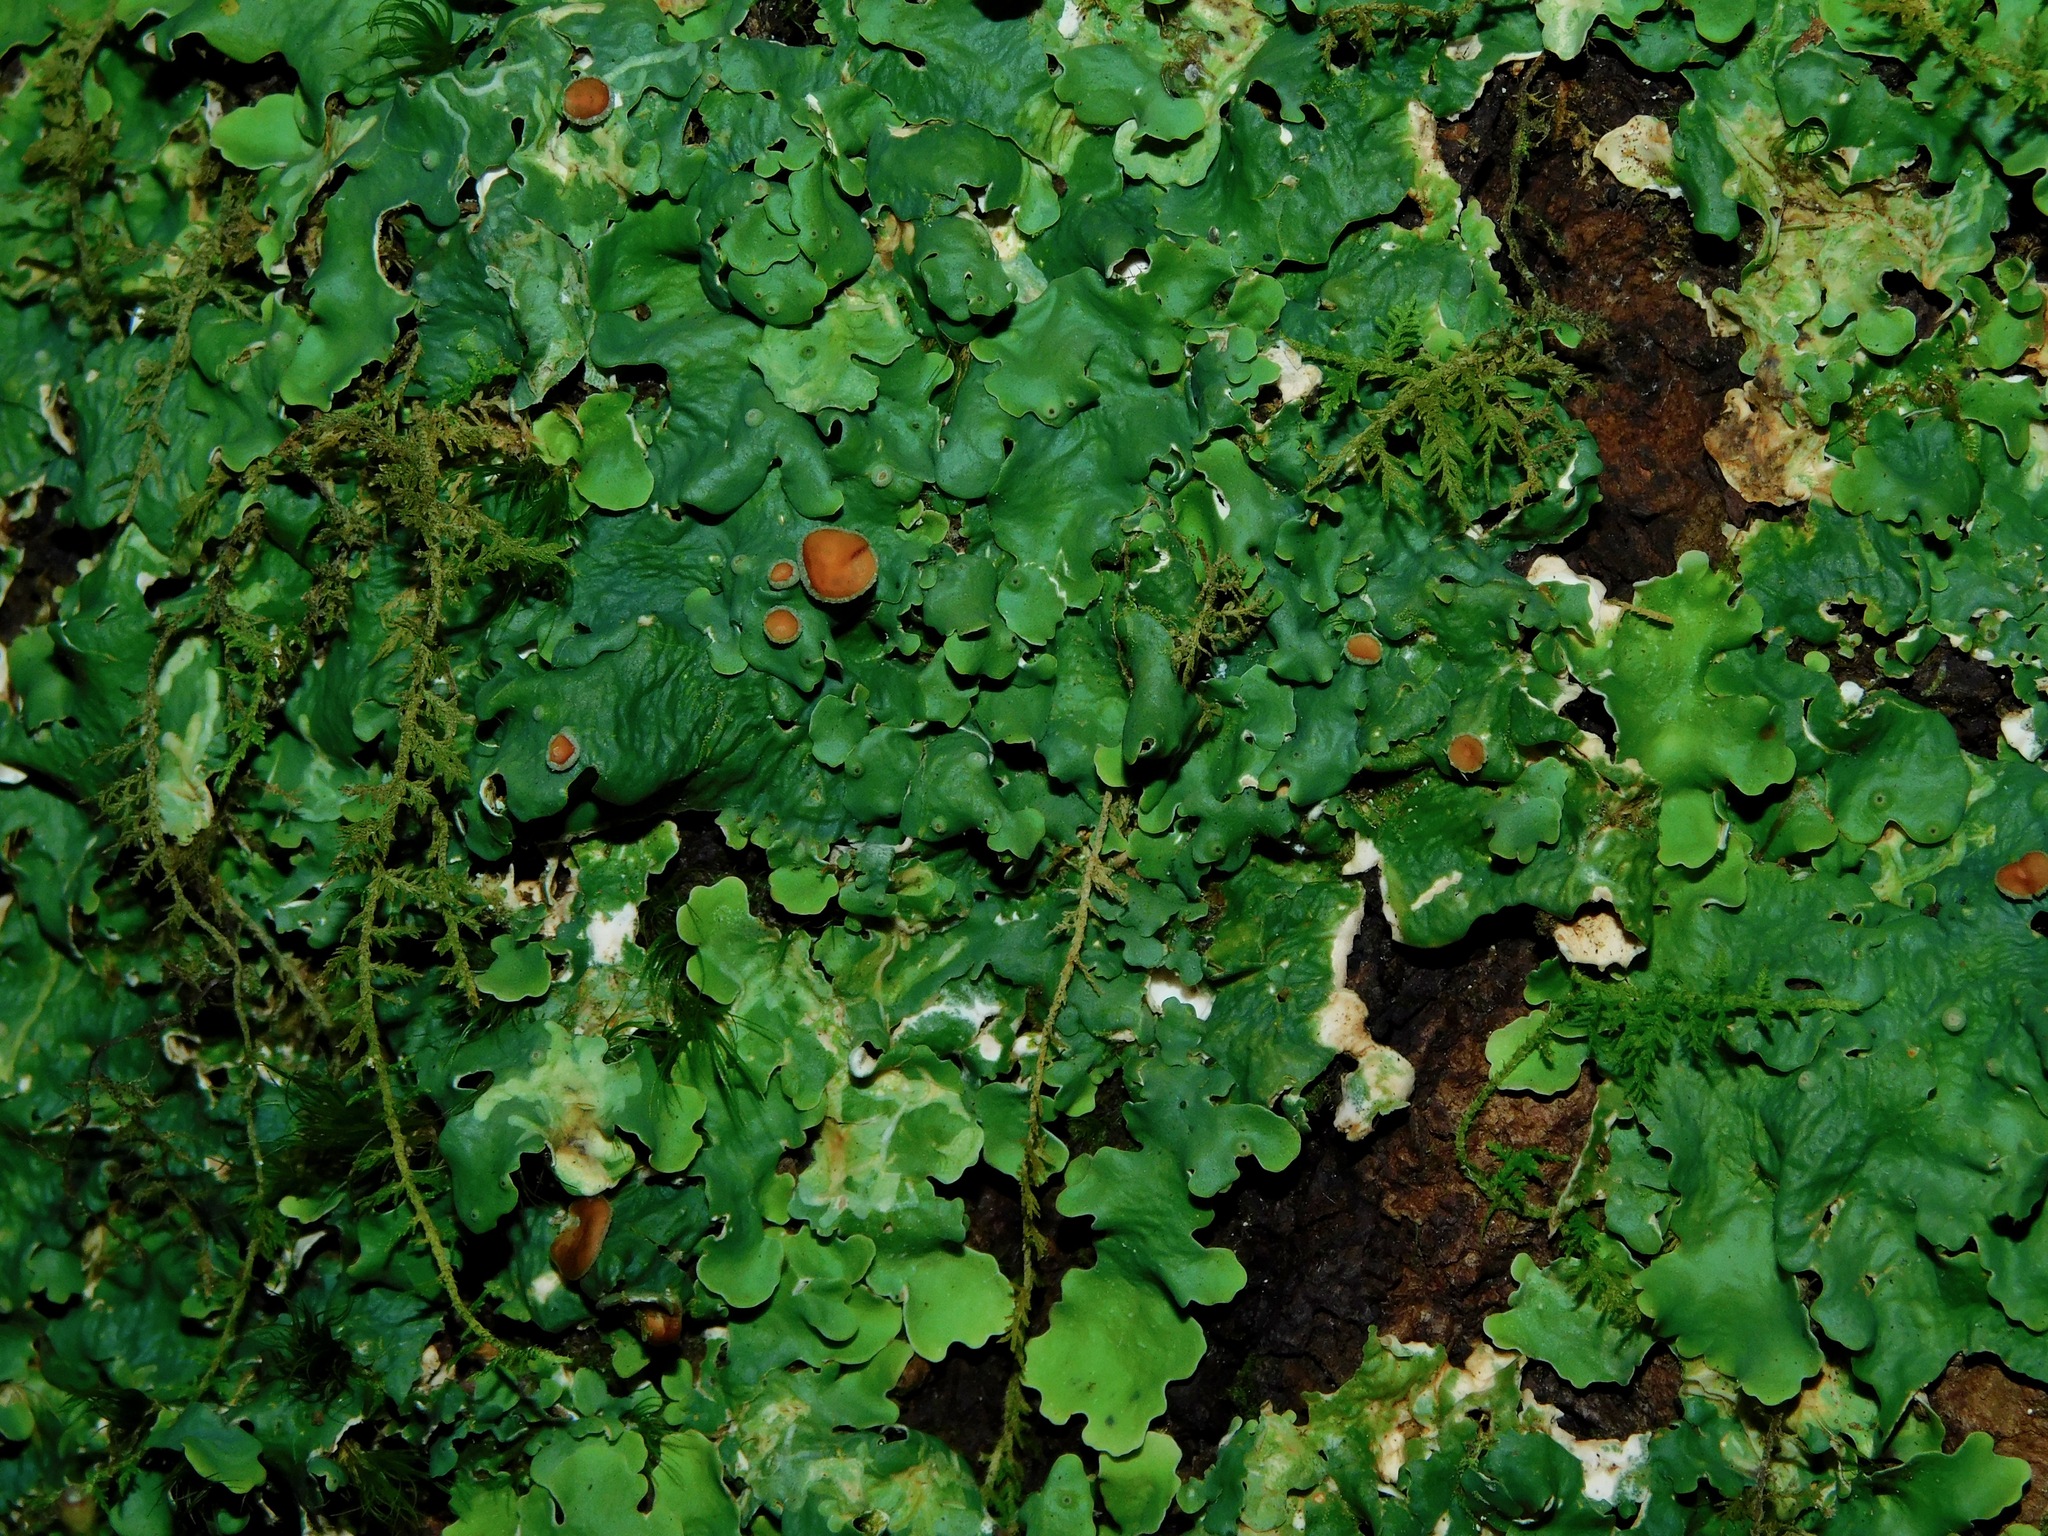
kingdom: Fungi
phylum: Ascomycota
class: Lecanoromycetes
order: Peltigerales
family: Lobariaceae
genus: Ricasolia
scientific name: Ricasolia quercizans
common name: Smooth lungwort
